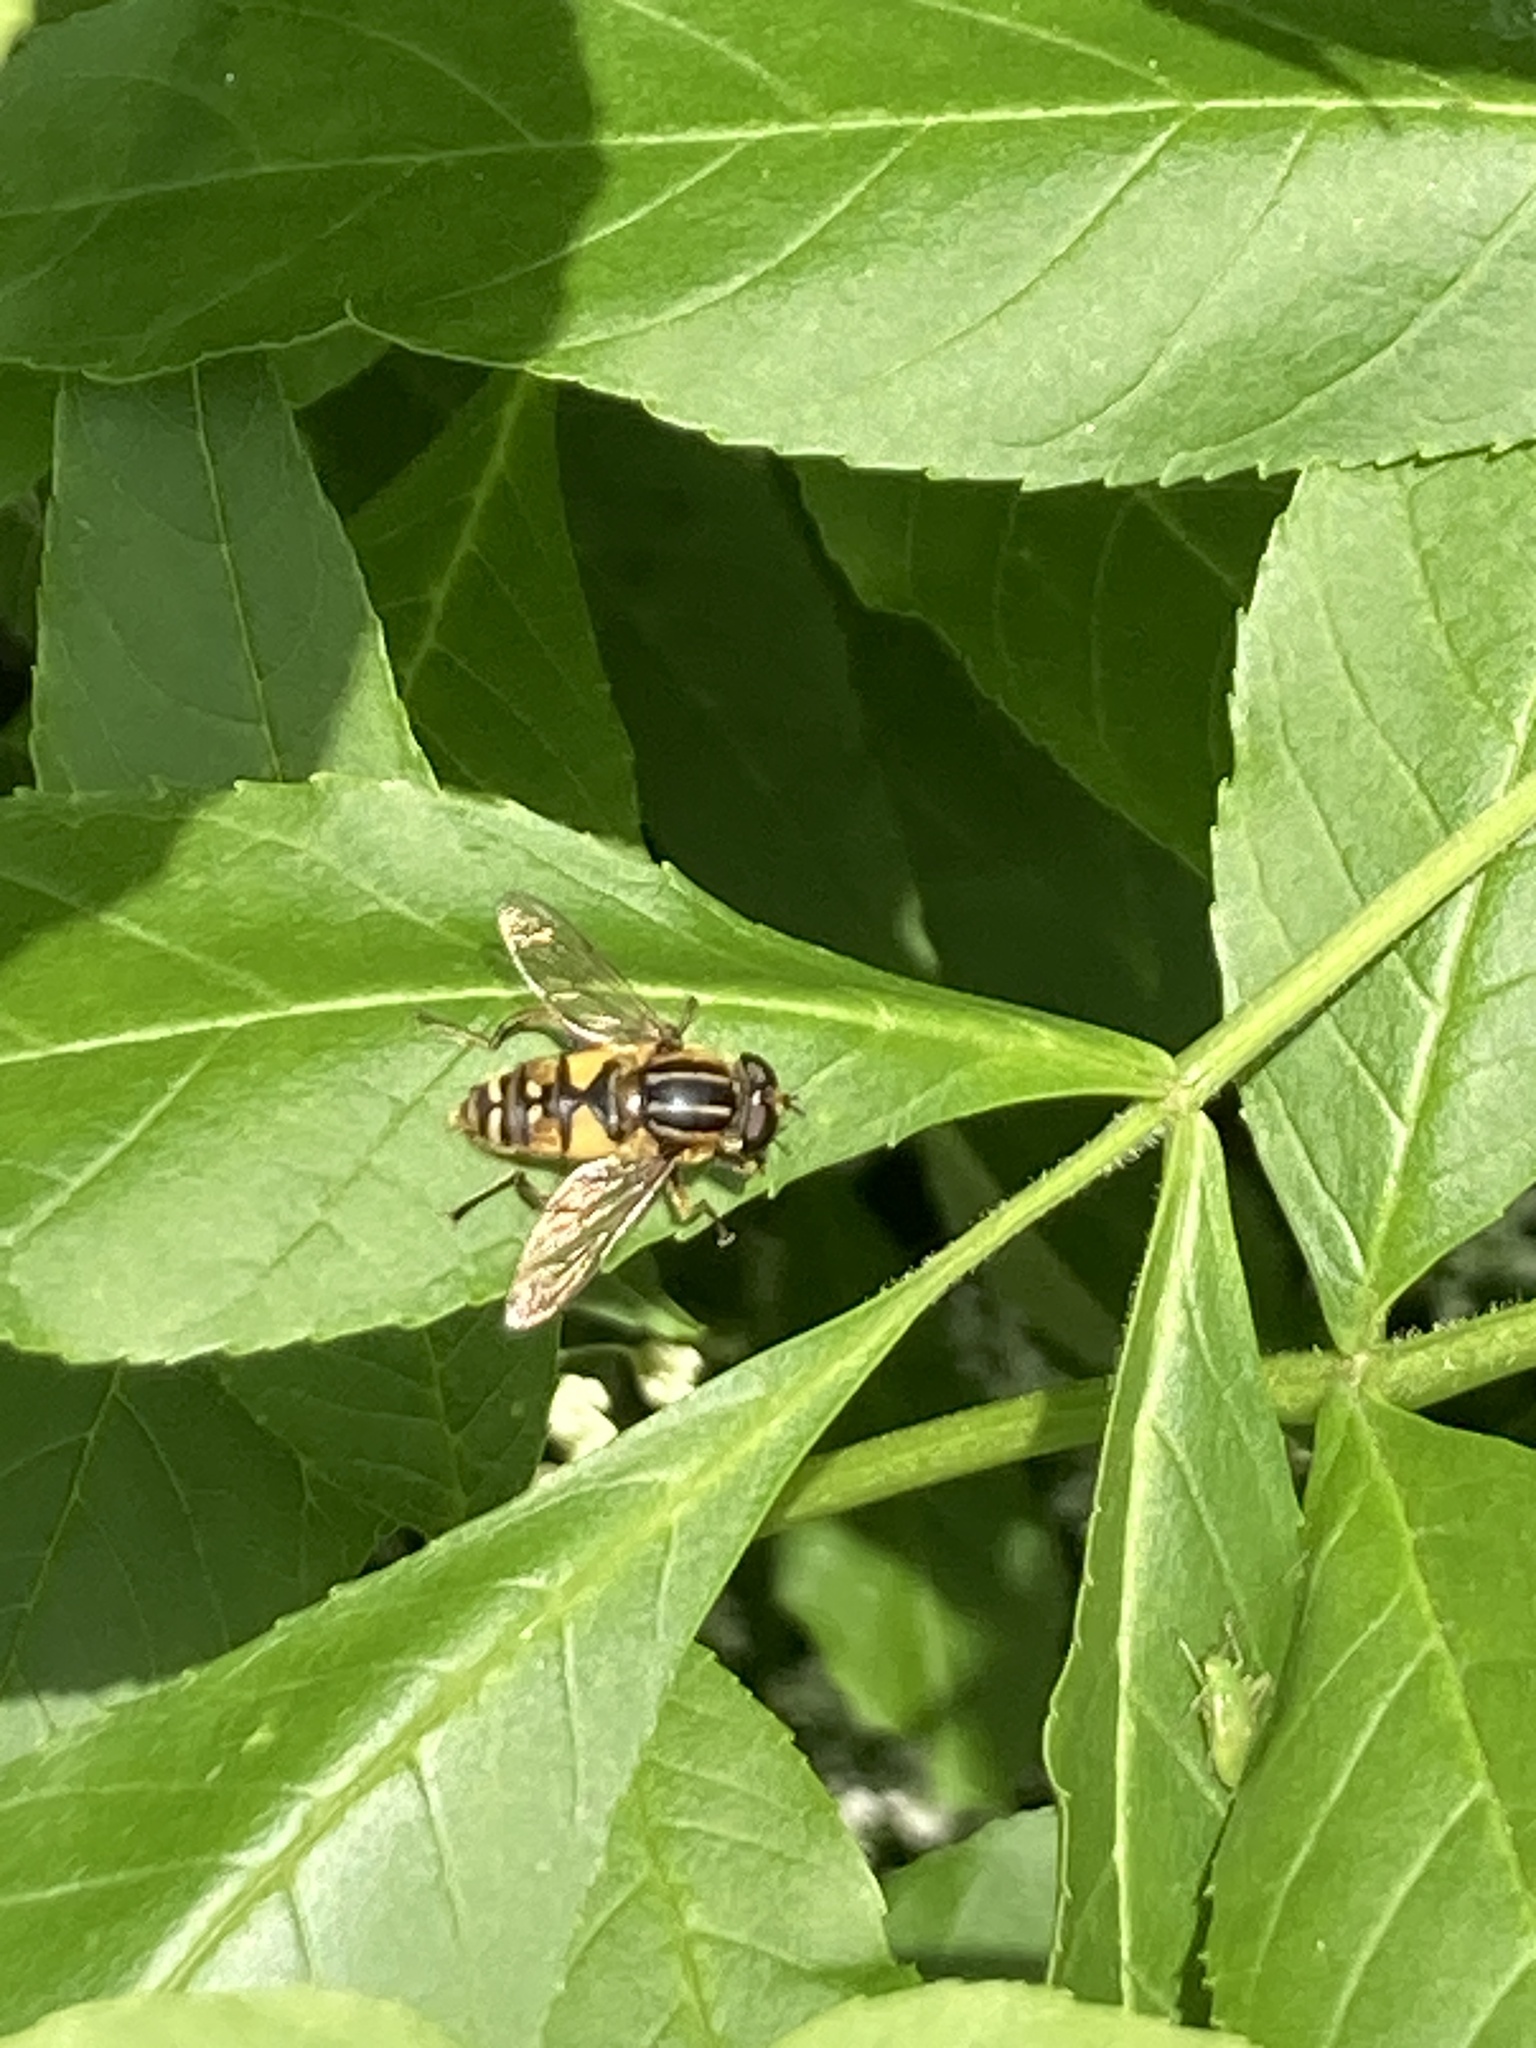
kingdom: Animalia
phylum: Arthropoda
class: Insecta
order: Diptera
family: Syrphidae
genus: Helophilus
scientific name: Helophilus pendulus
